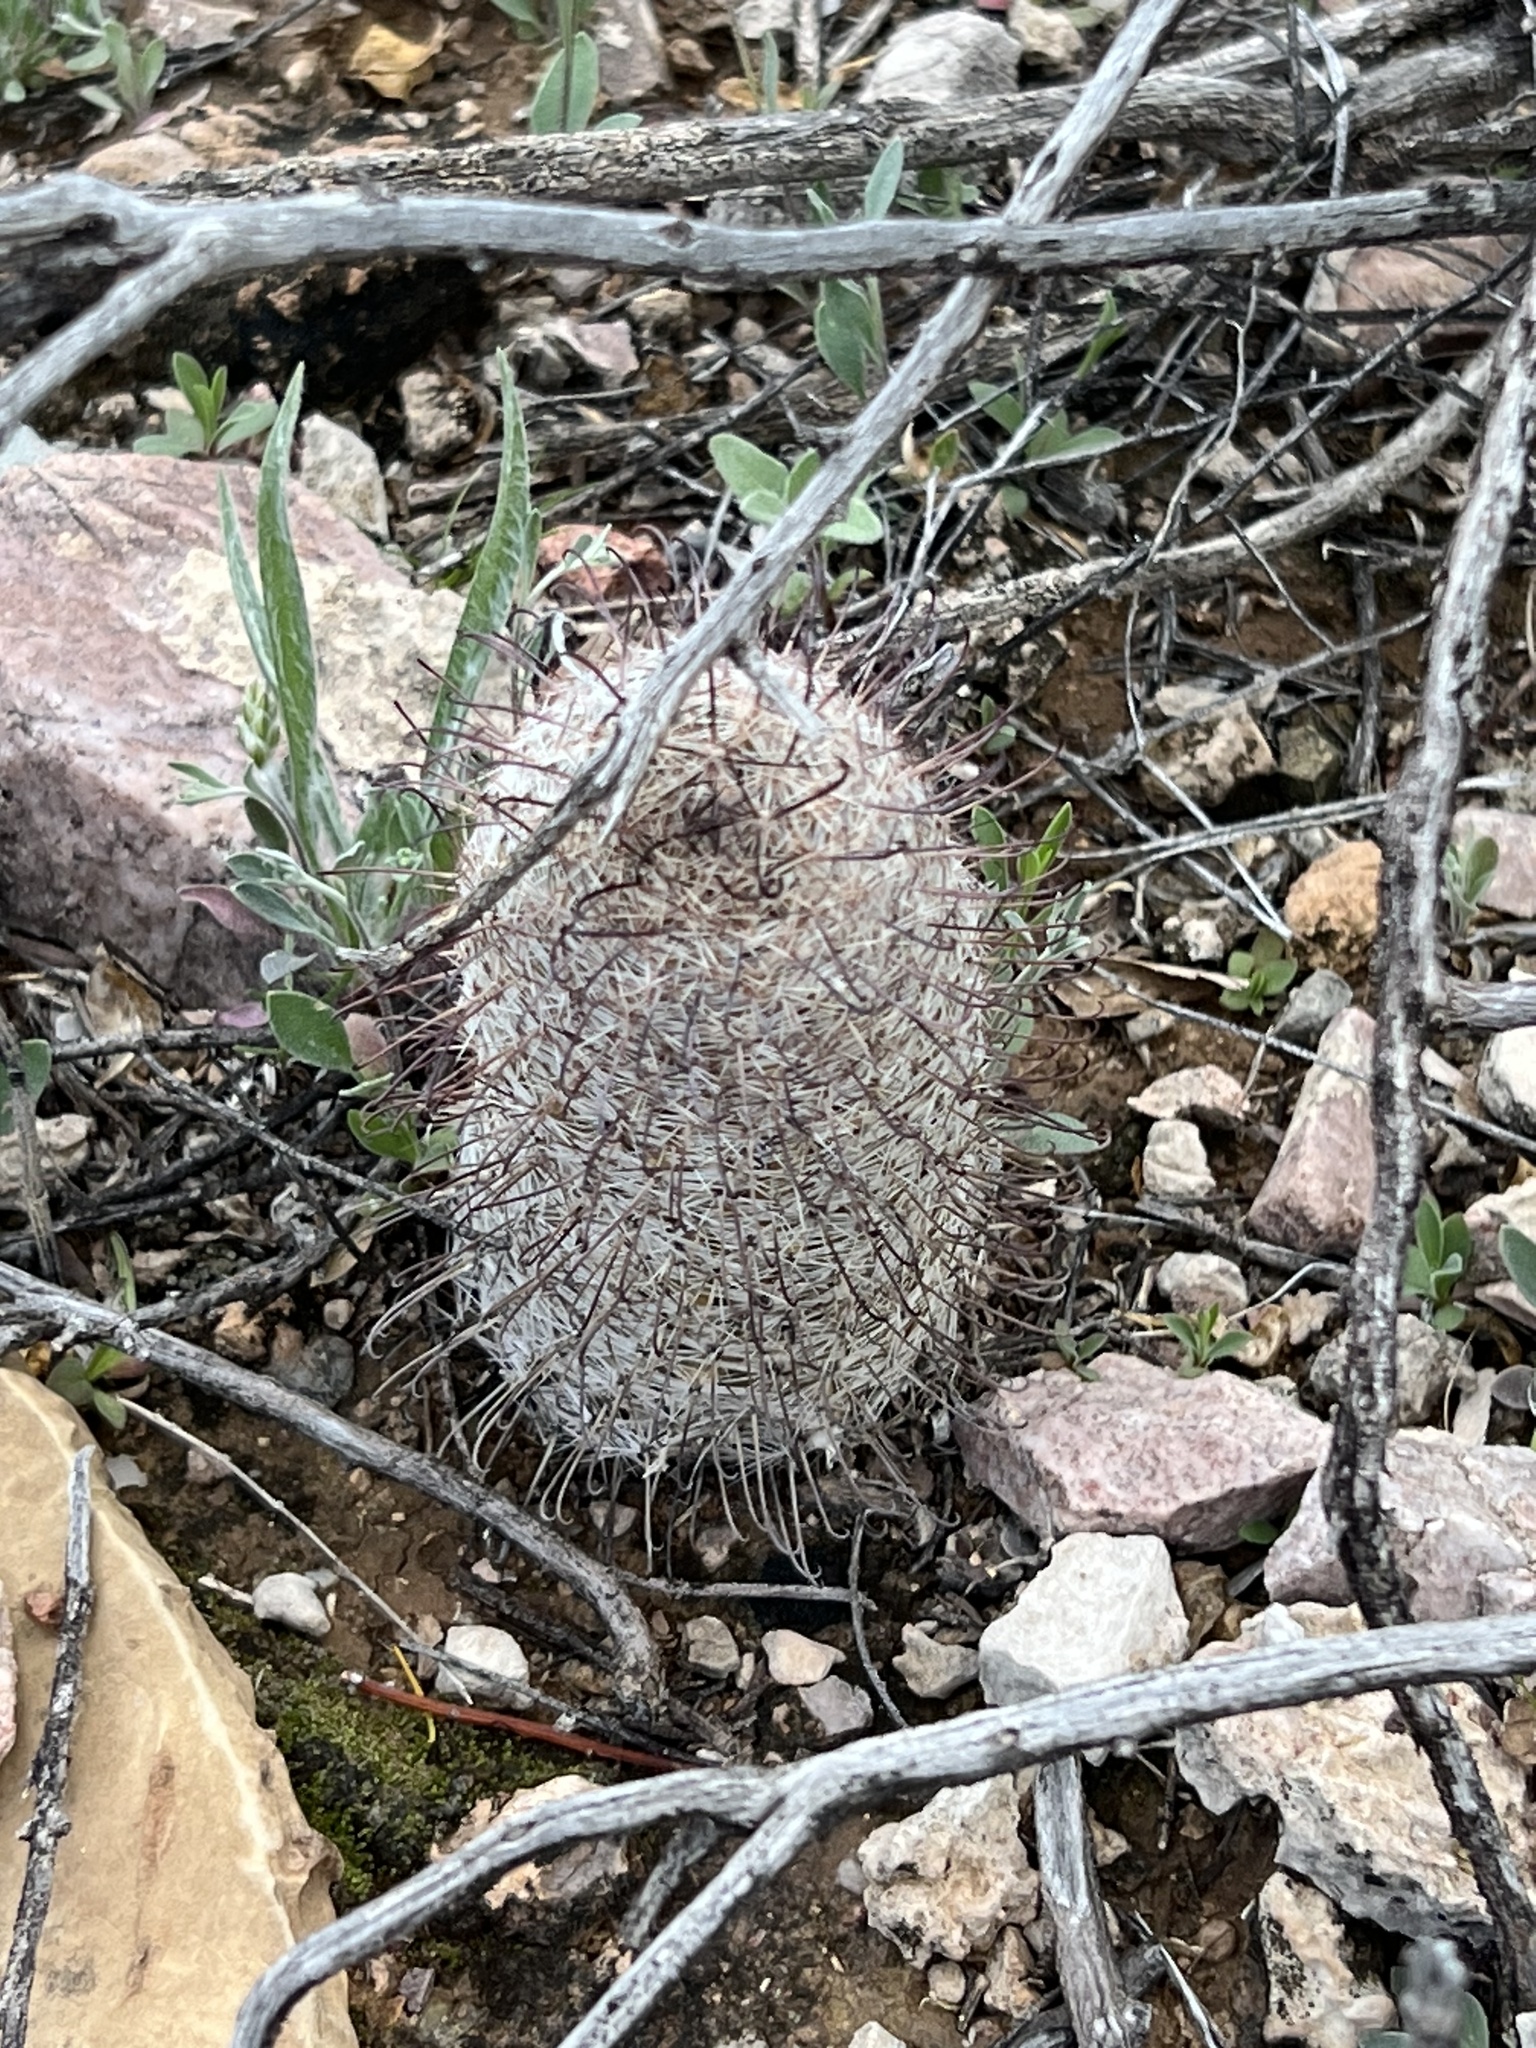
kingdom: Plantae
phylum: Tracheophyta
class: Magnoliopsida
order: Caryophyllales
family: Cactaceae
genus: Cochemiea
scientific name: Cochemiea grahamii
